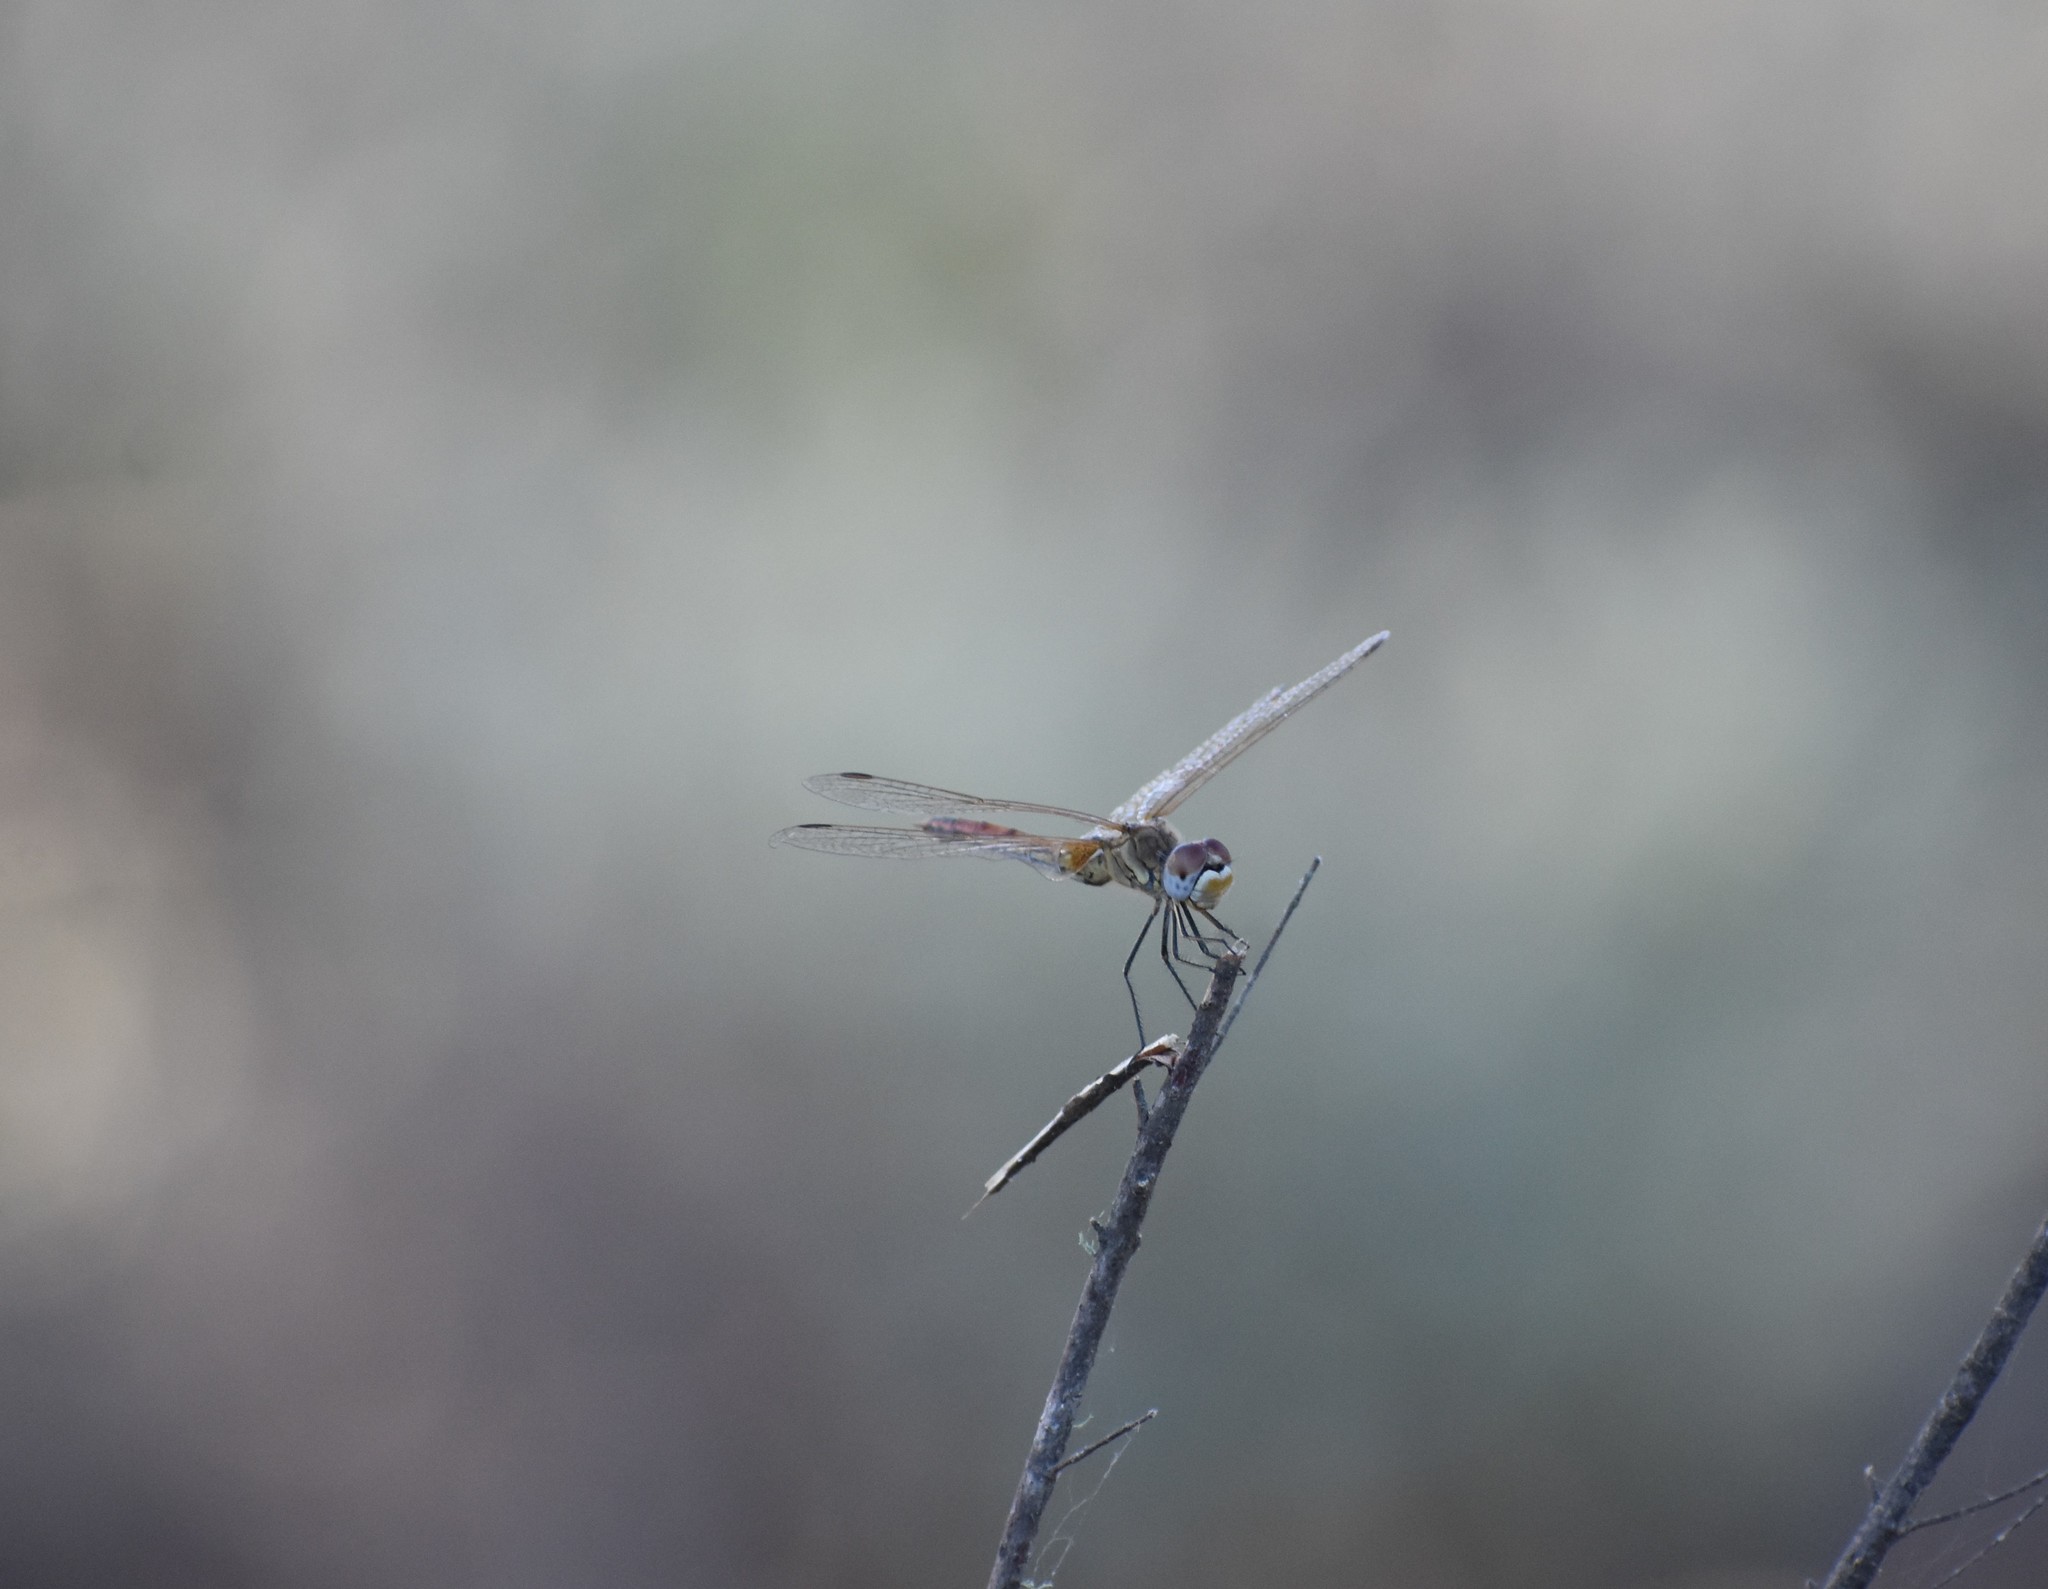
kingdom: Animalia
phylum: Arthropoda
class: Insecta
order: Odonata
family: Libellulidae
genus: Sympetrum
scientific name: Sympetrum fonscolombii
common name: Red-veined darter
